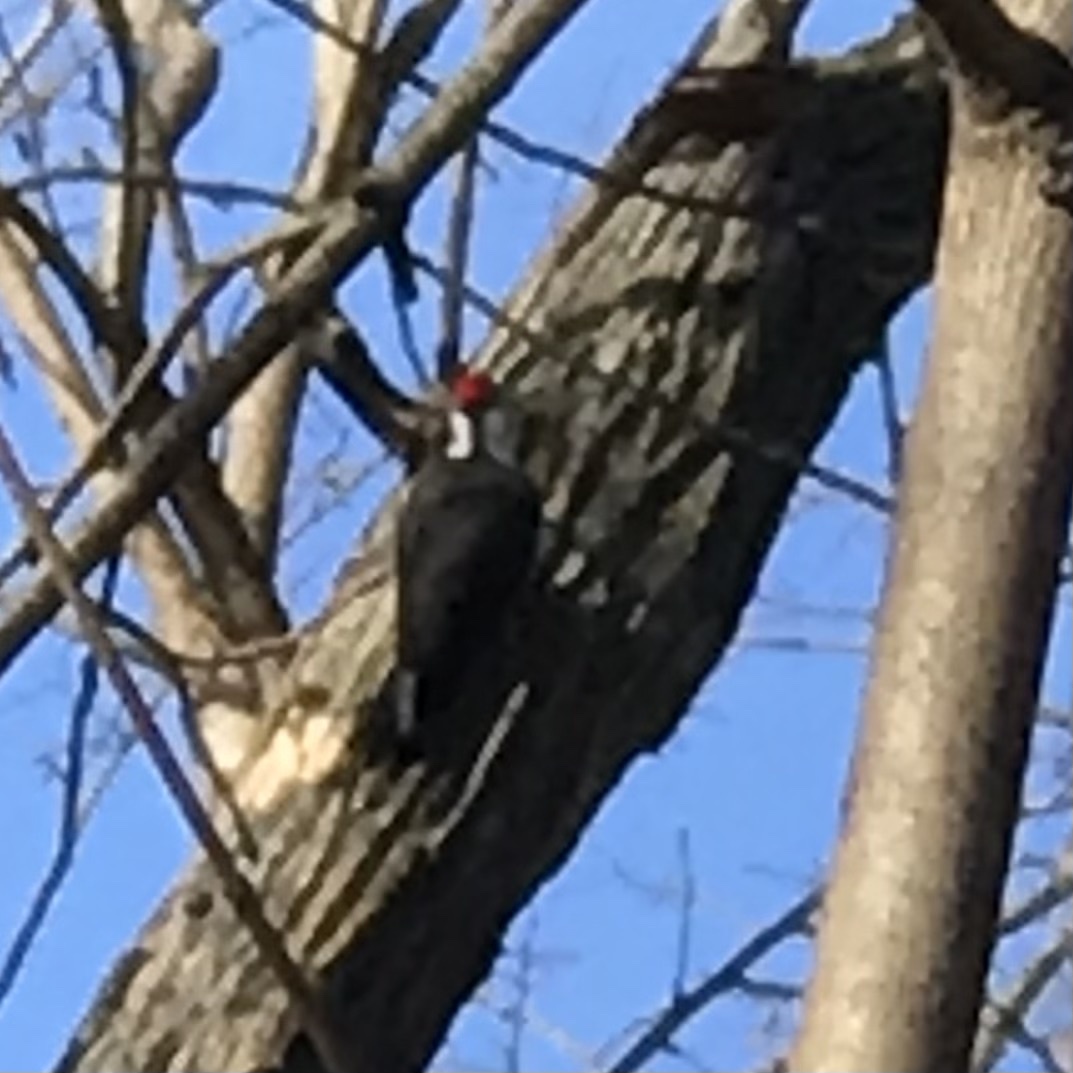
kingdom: Animalia
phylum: Chordata
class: Aves
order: Piciformes
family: Picidae
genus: Dryocopus
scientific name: Dryocopus pileatus
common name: Pileated woodpecker
